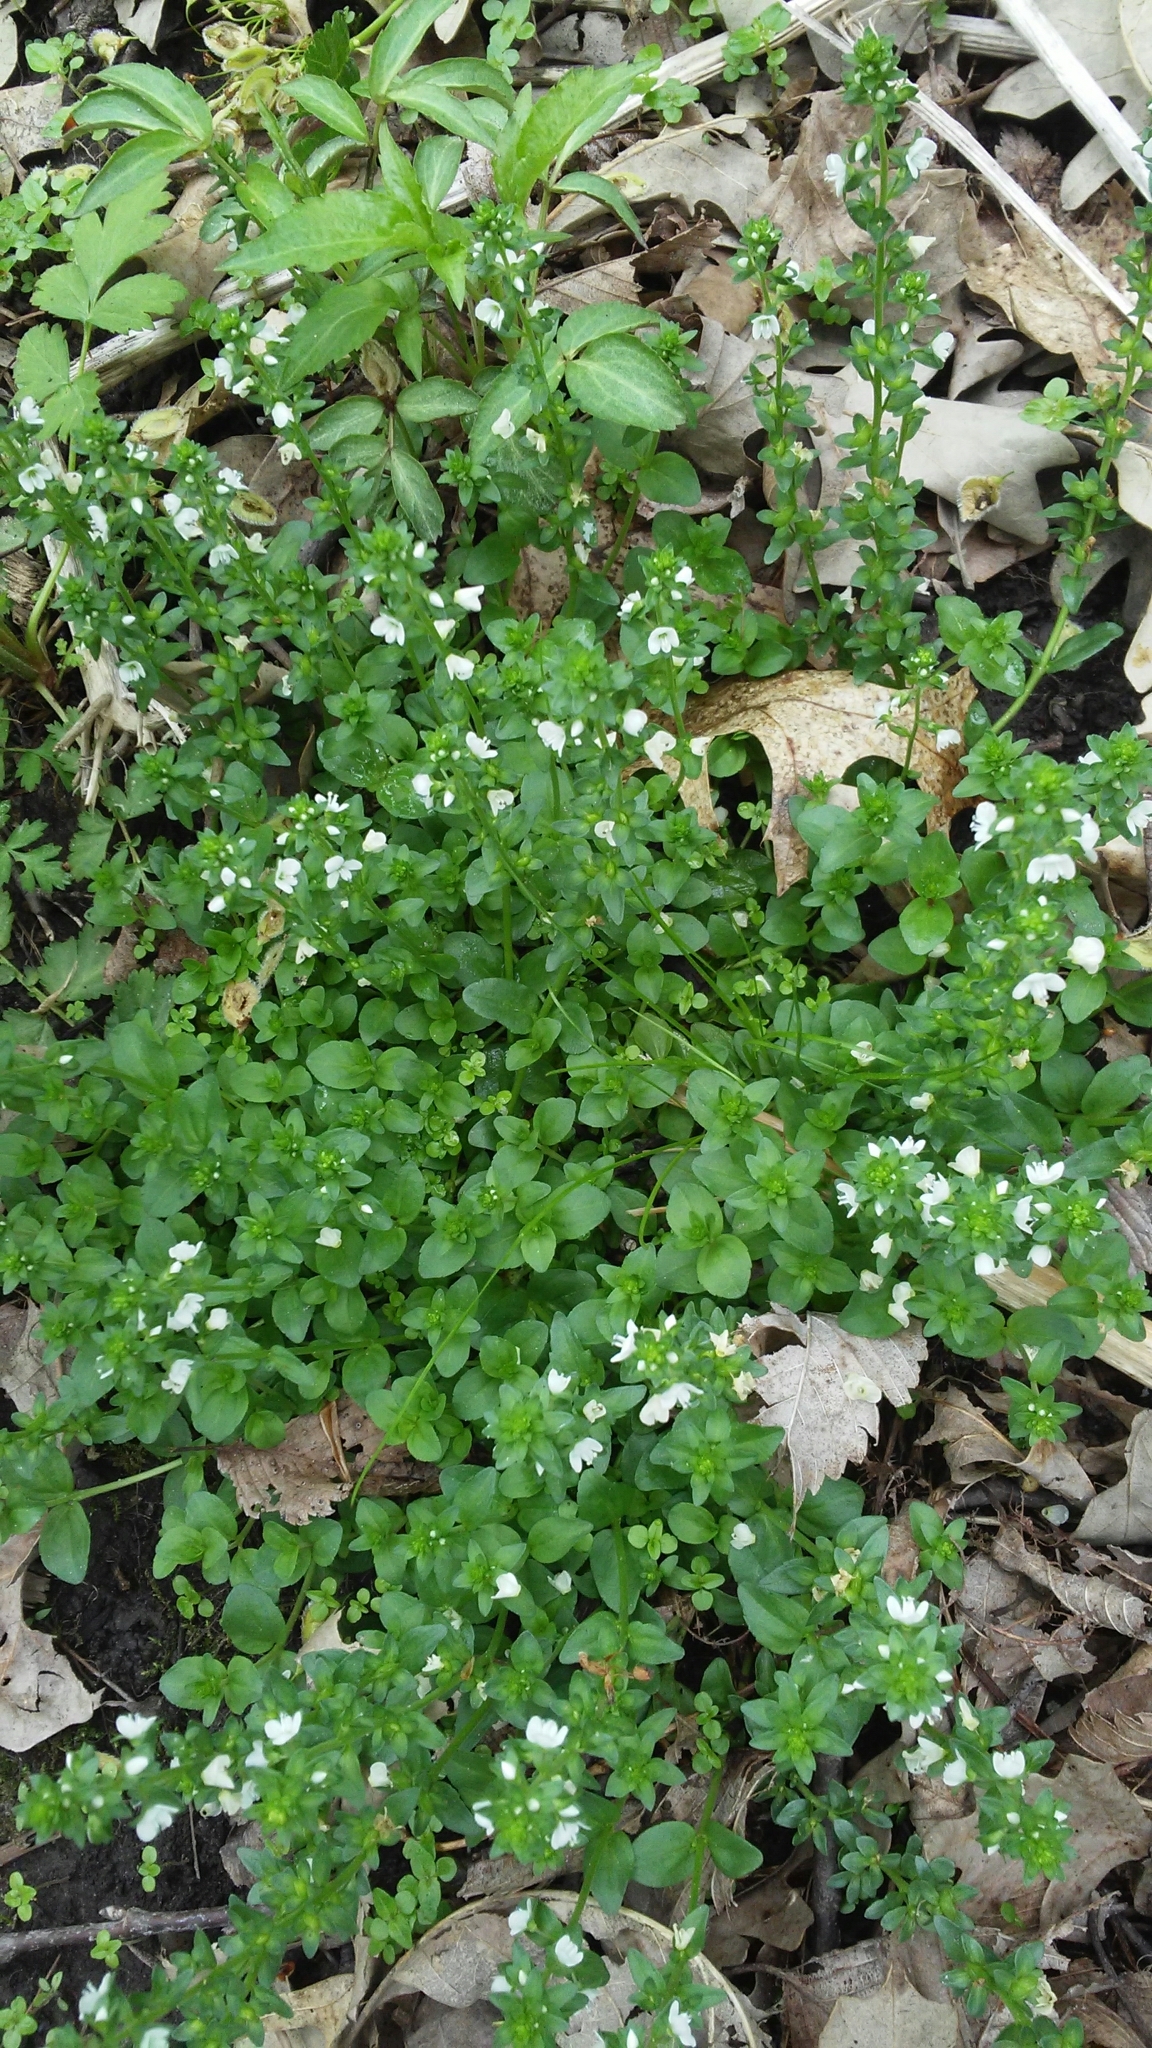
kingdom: Plantae
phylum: Tracheophyta
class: Magnoliopsida
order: Lamiales
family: Plantaginaceae
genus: Veronica
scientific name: Veronica serpyllifolia
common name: Thyme-leaved speedwell
